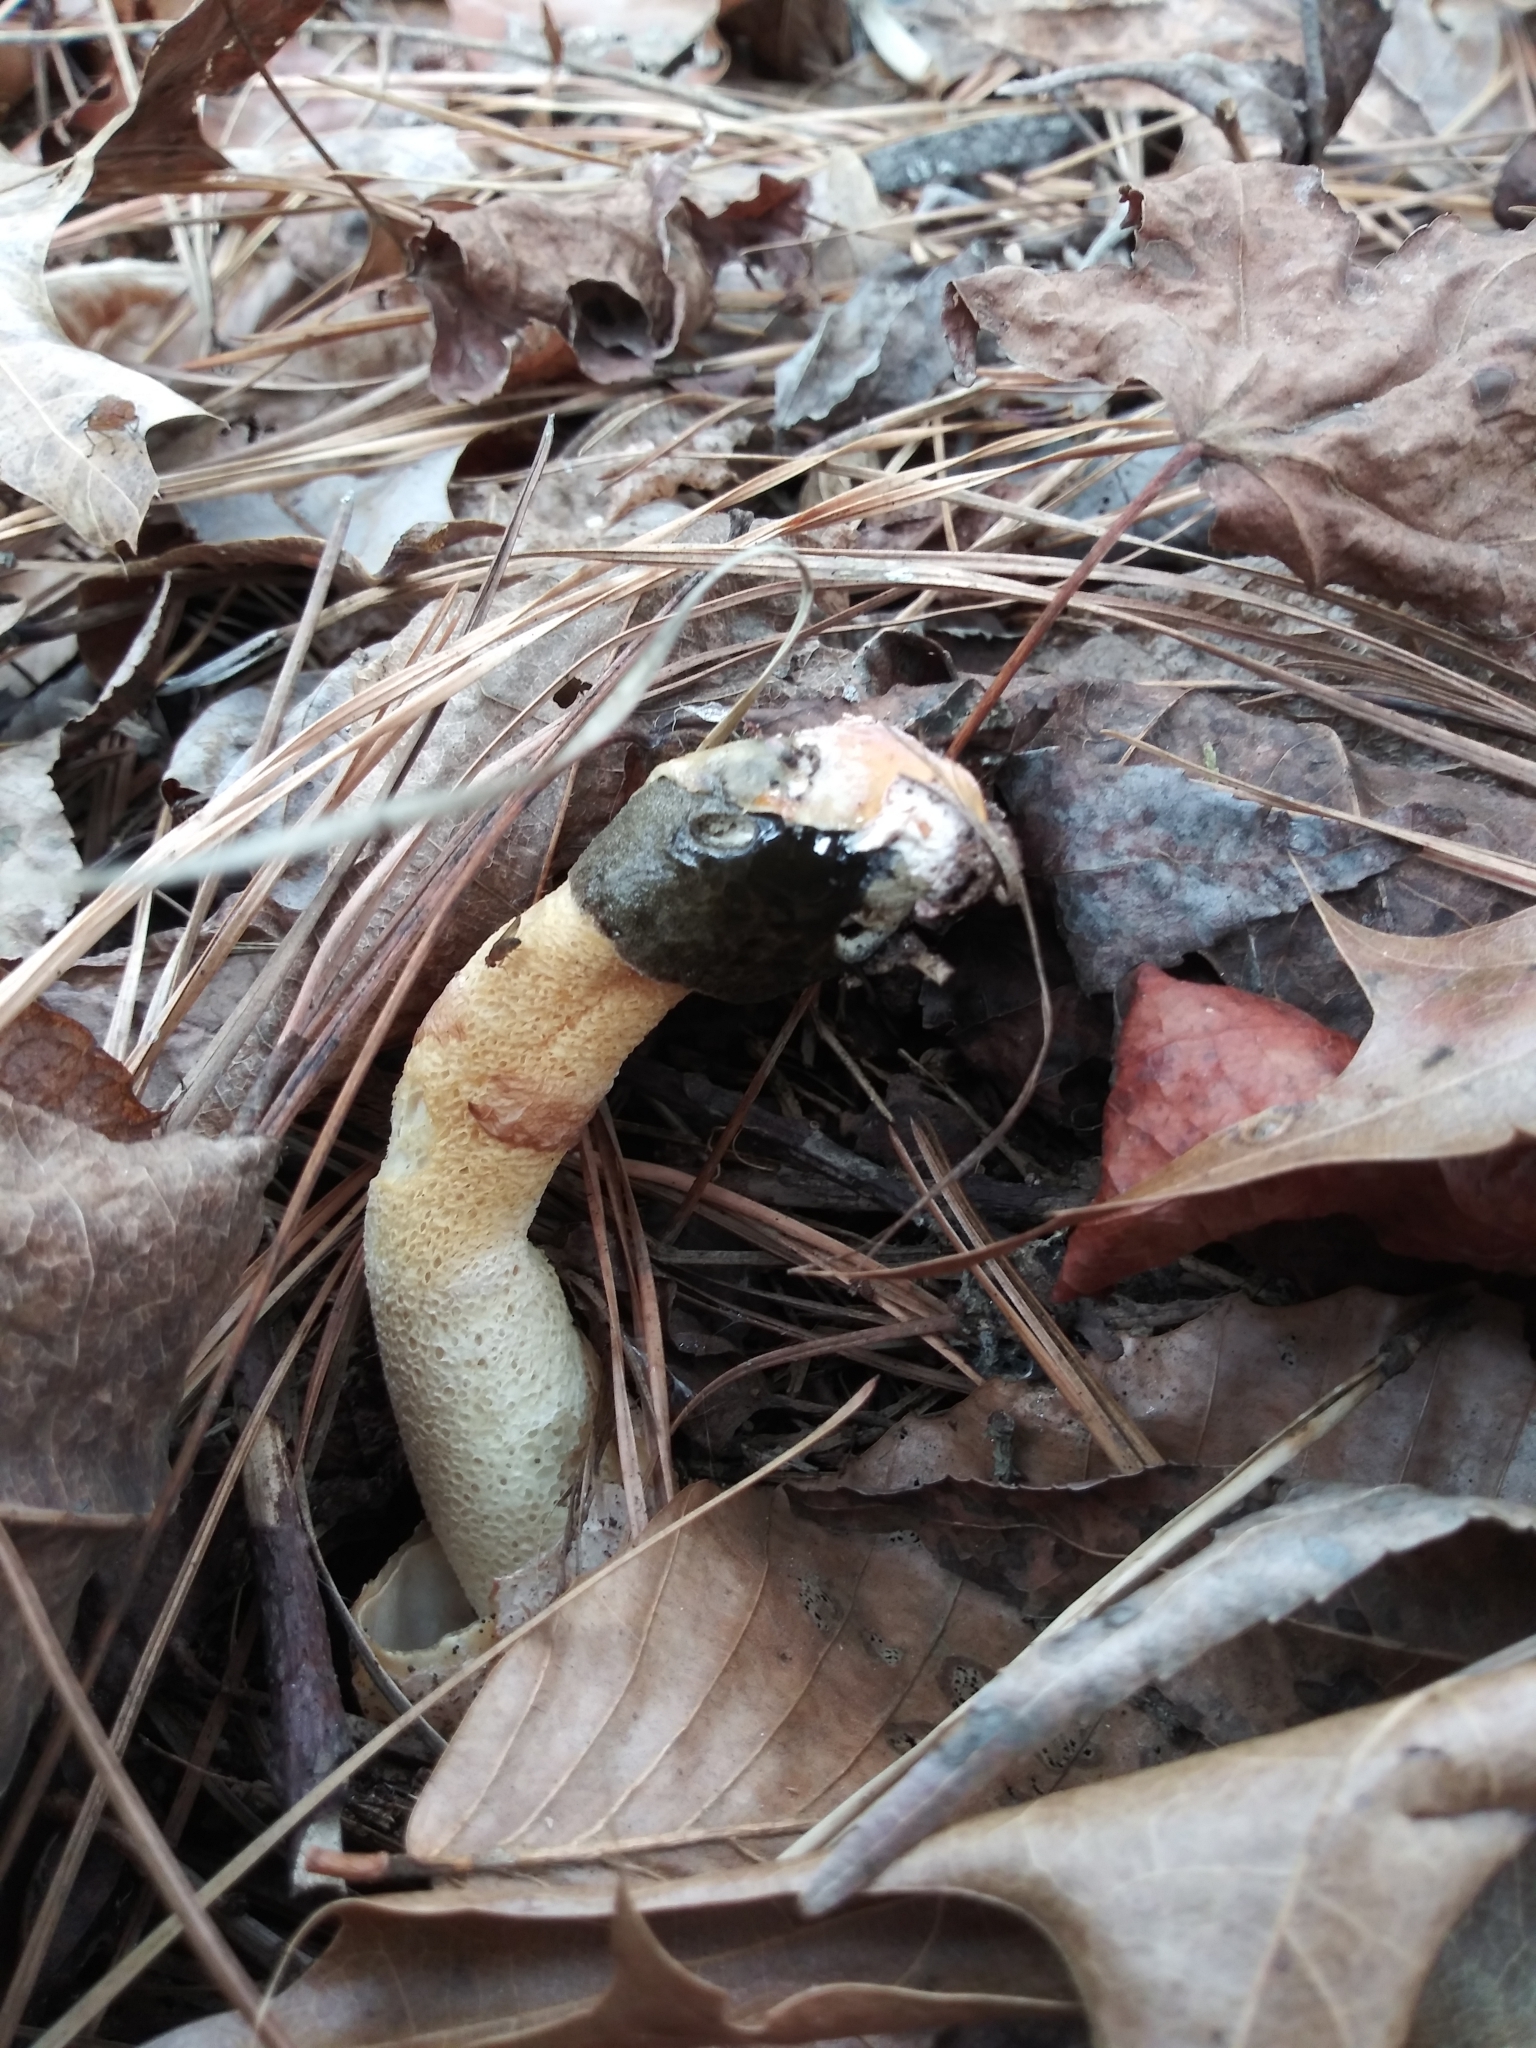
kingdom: Fungi
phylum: Basidiomycota
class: Agaricomycetes
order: Phallales
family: Phallaceae
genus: Phallus
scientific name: Phallus ravenelii
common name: Ravenel's stinkhorn
